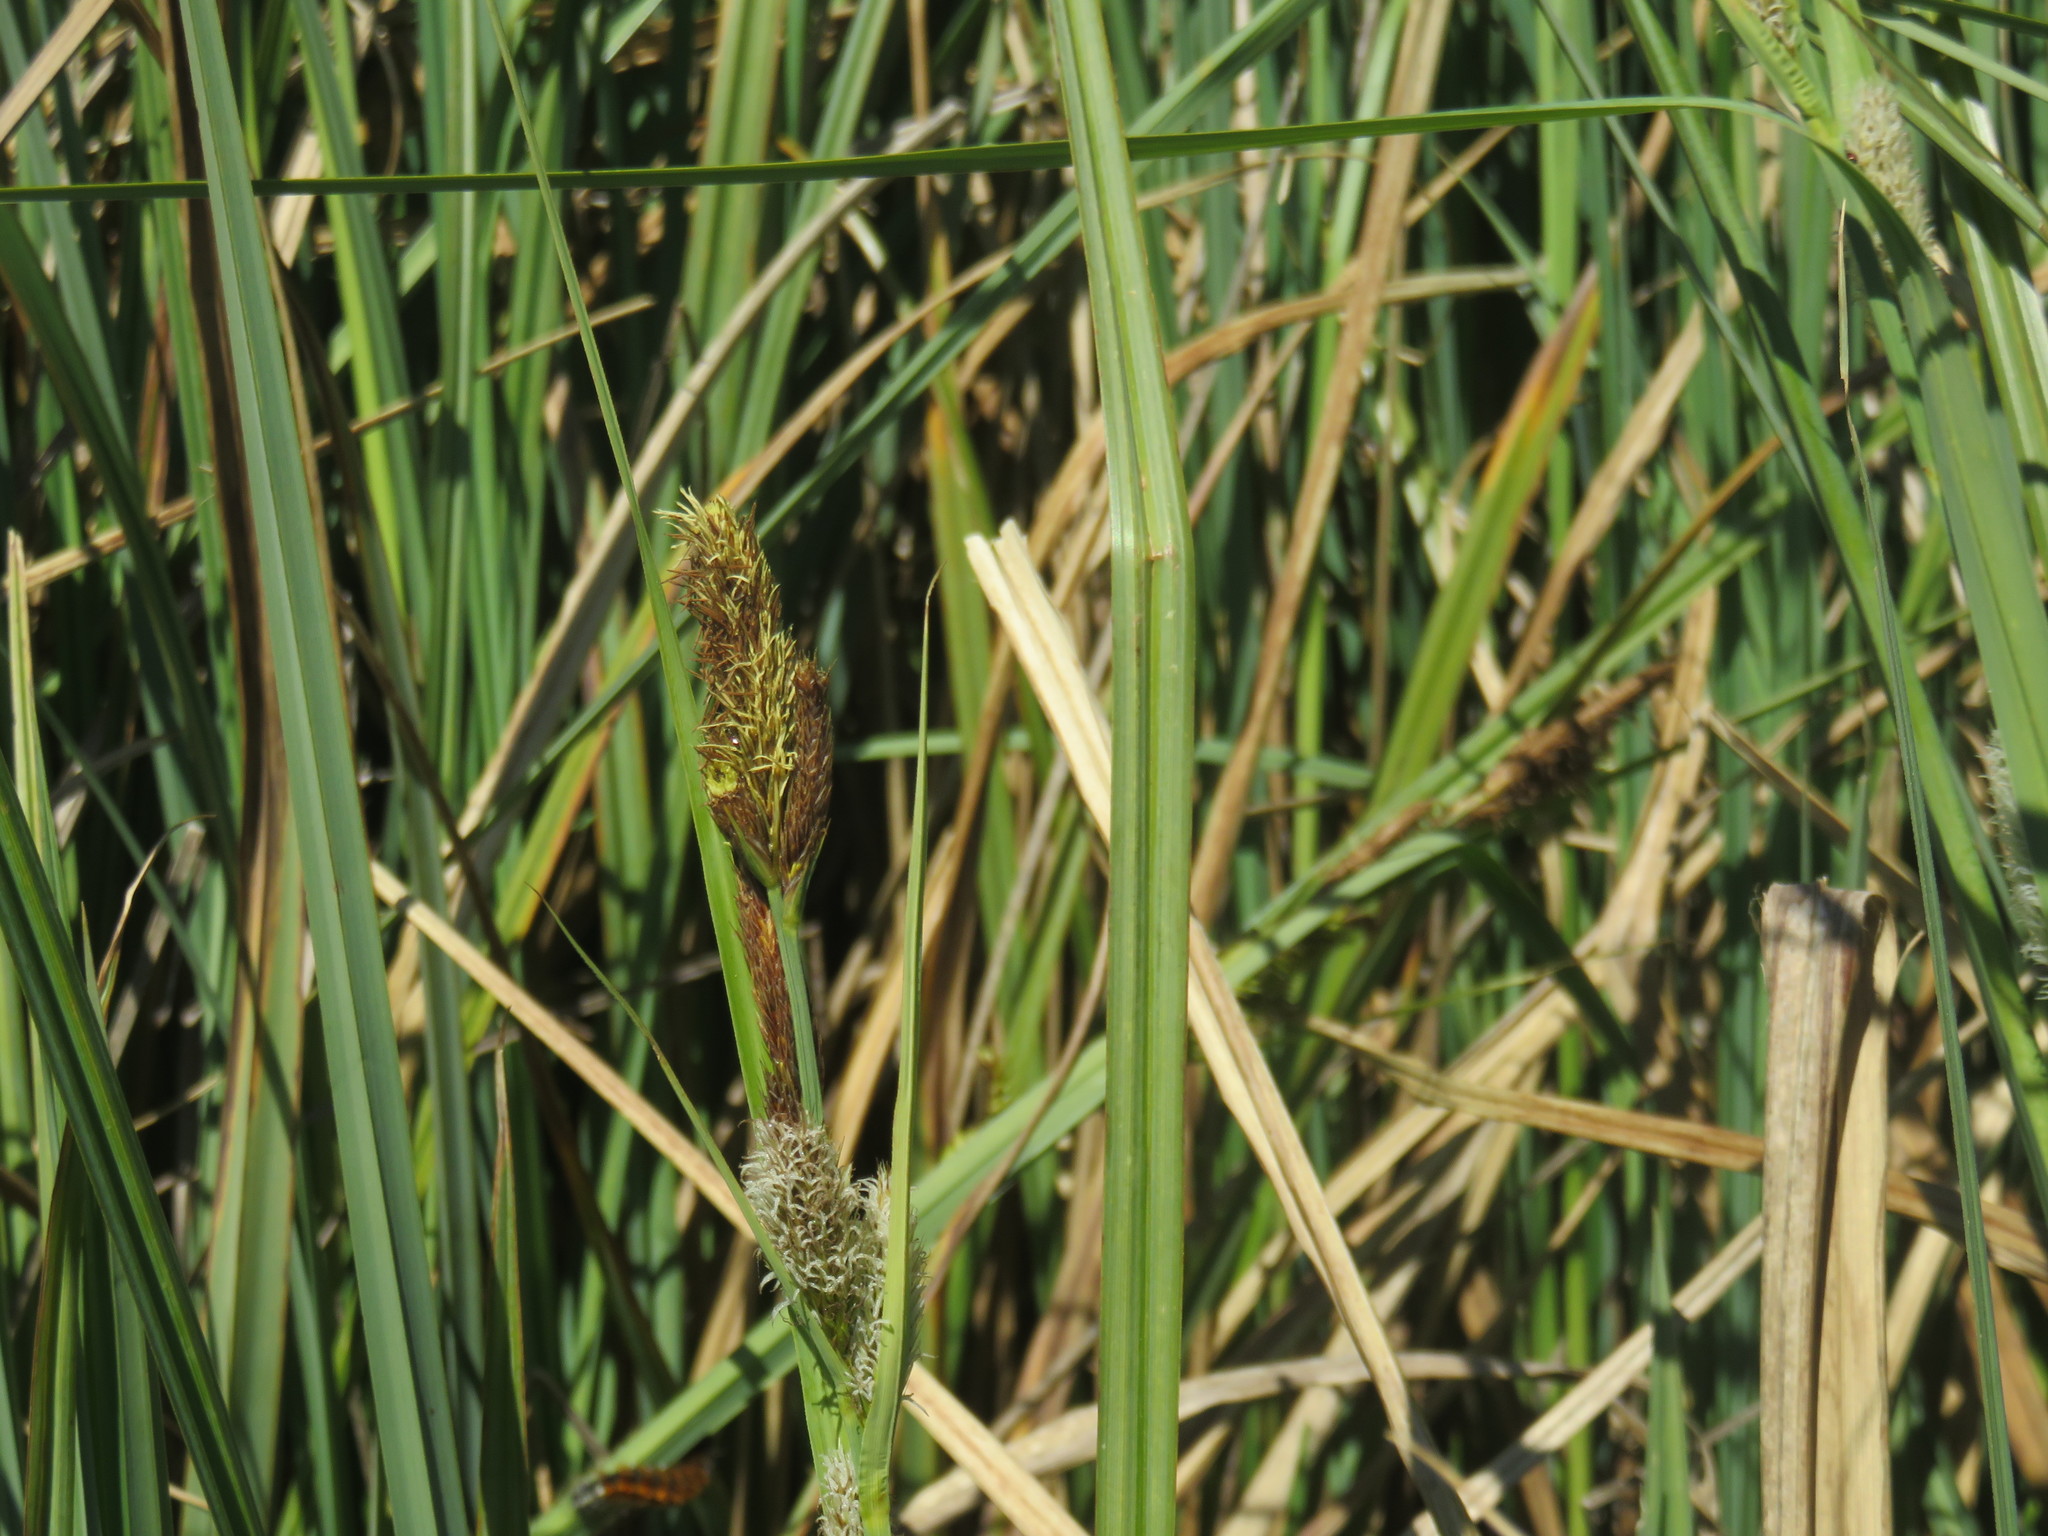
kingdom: Plantae
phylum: Tracheophyta
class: Liliopsida
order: Poales
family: Cyperaceae
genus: Carex
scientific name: Carex chilensis
